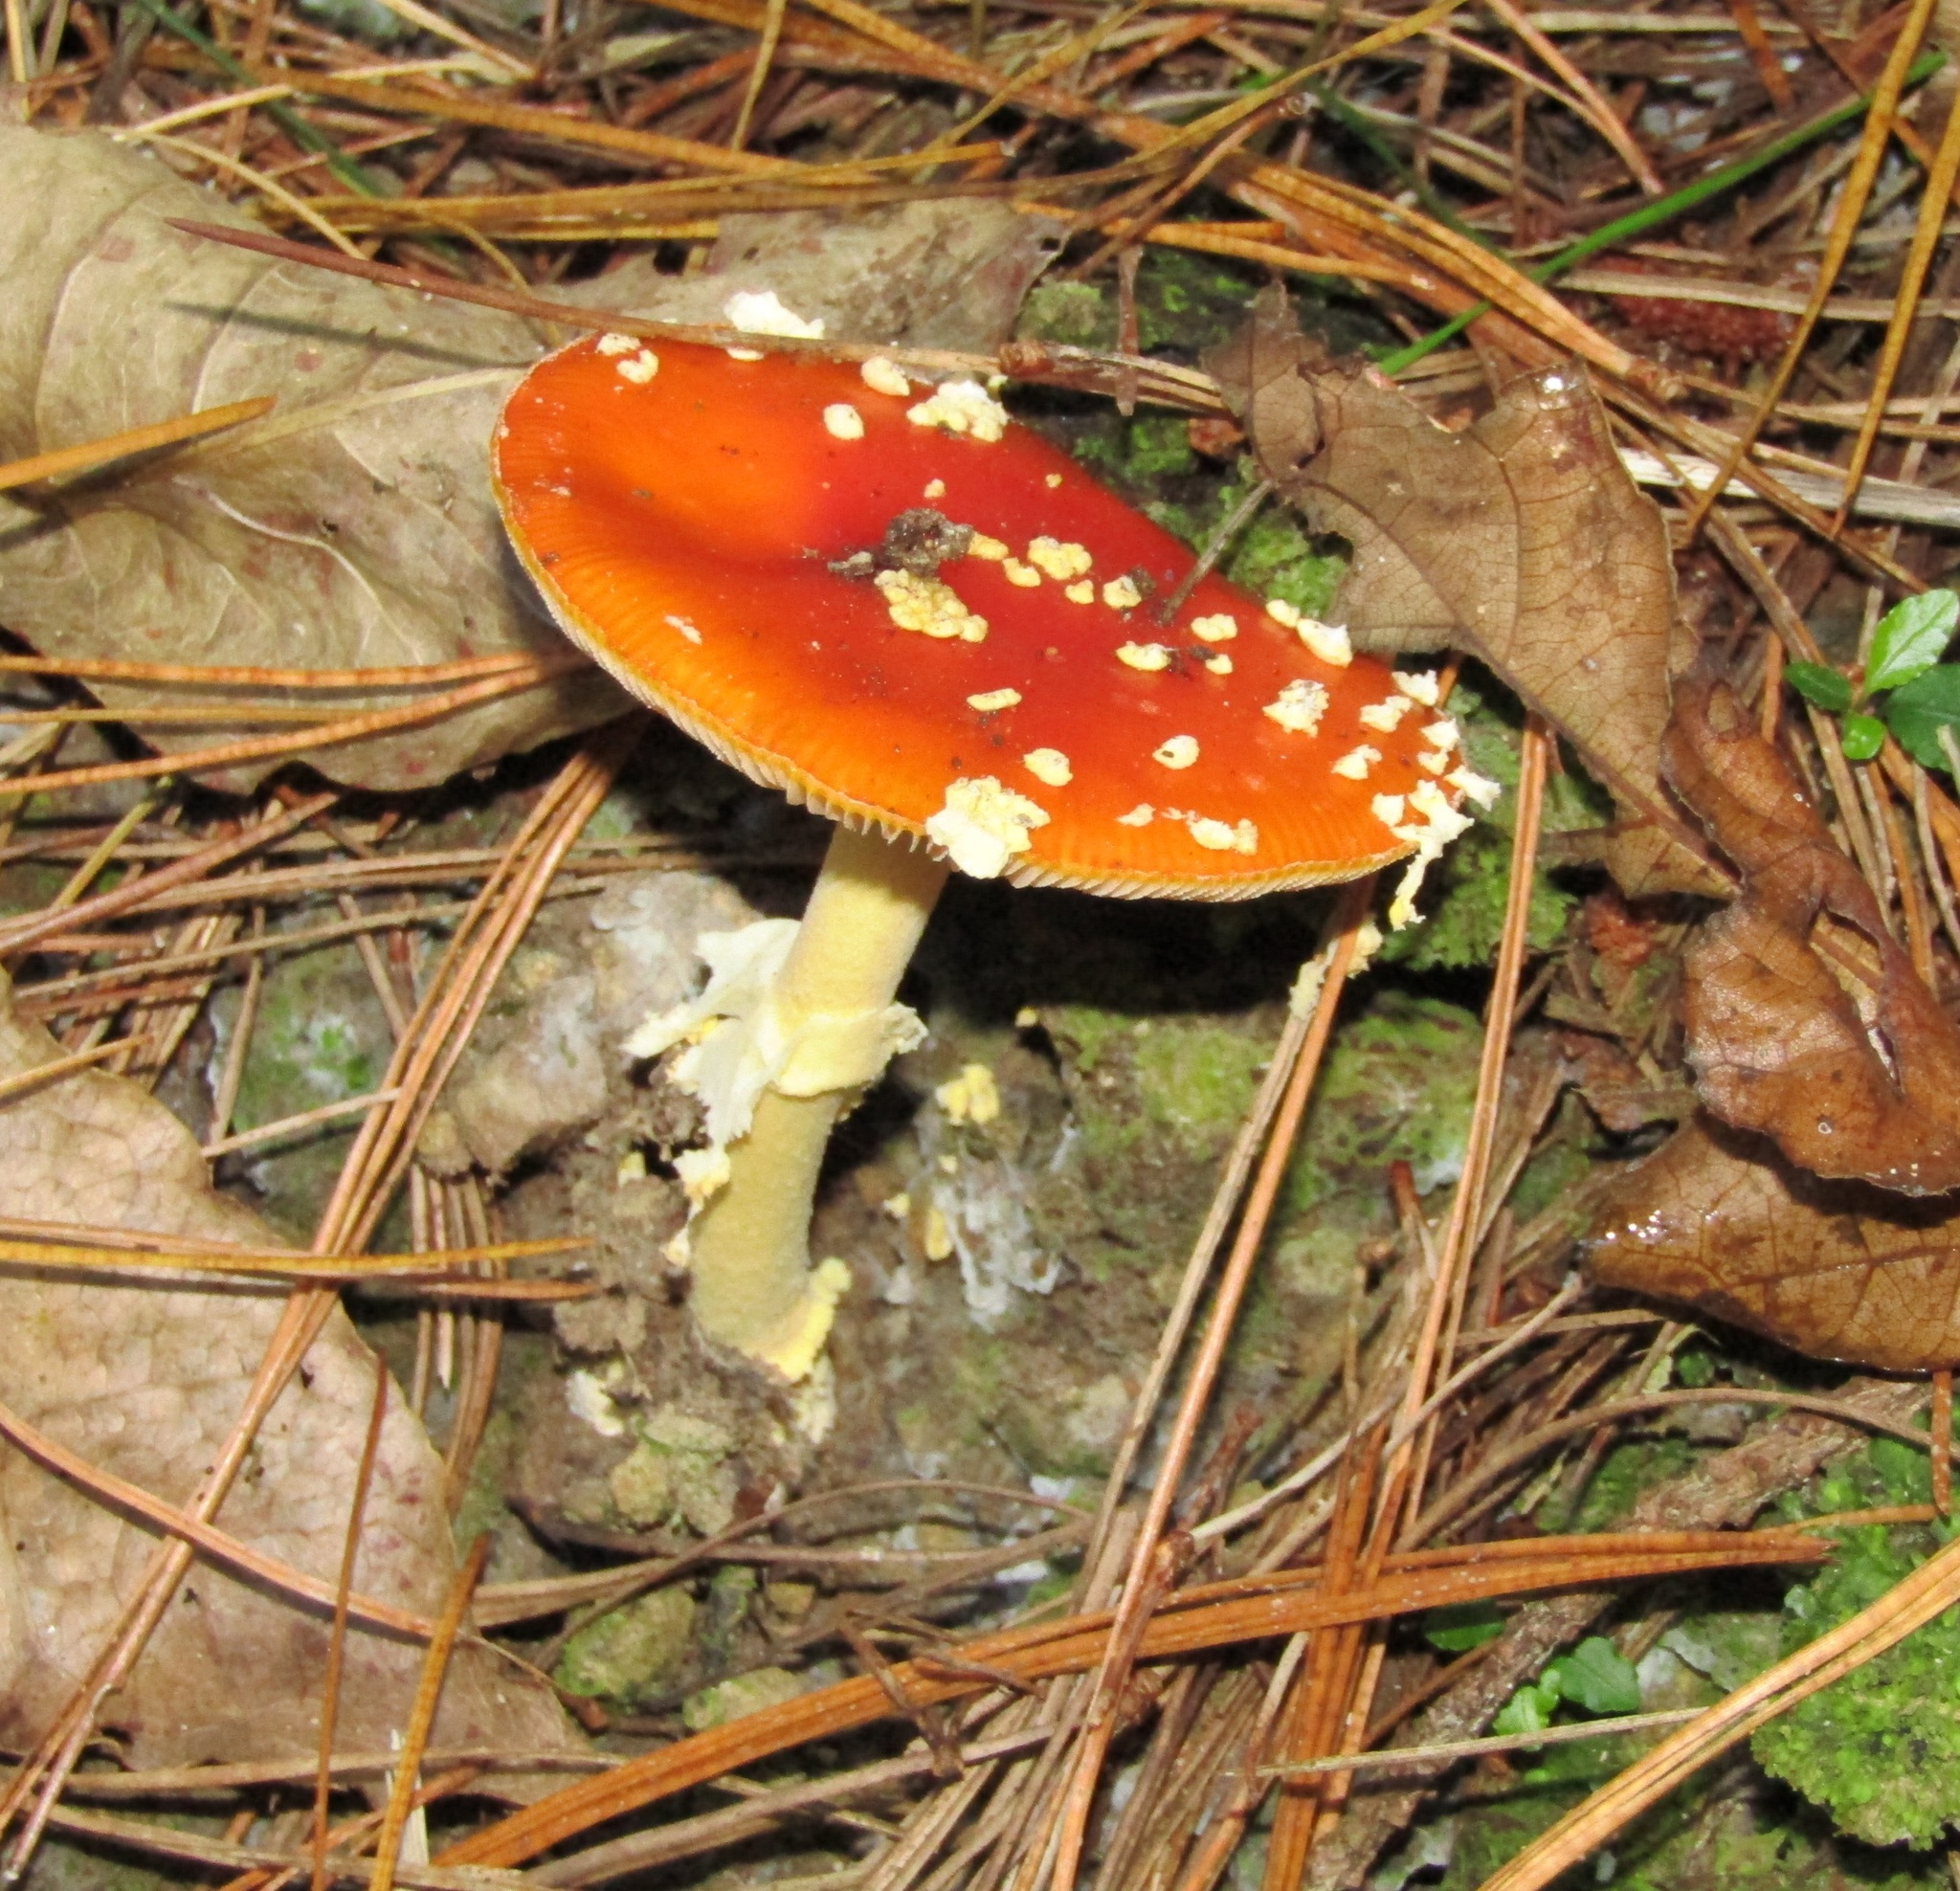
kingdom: Fungi
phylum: Basidiomycota
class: Agaricomycetes
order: Agaricales
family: Amanitaceae
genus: Amanita
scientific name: Amanita muscaria
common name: Fly agaric
